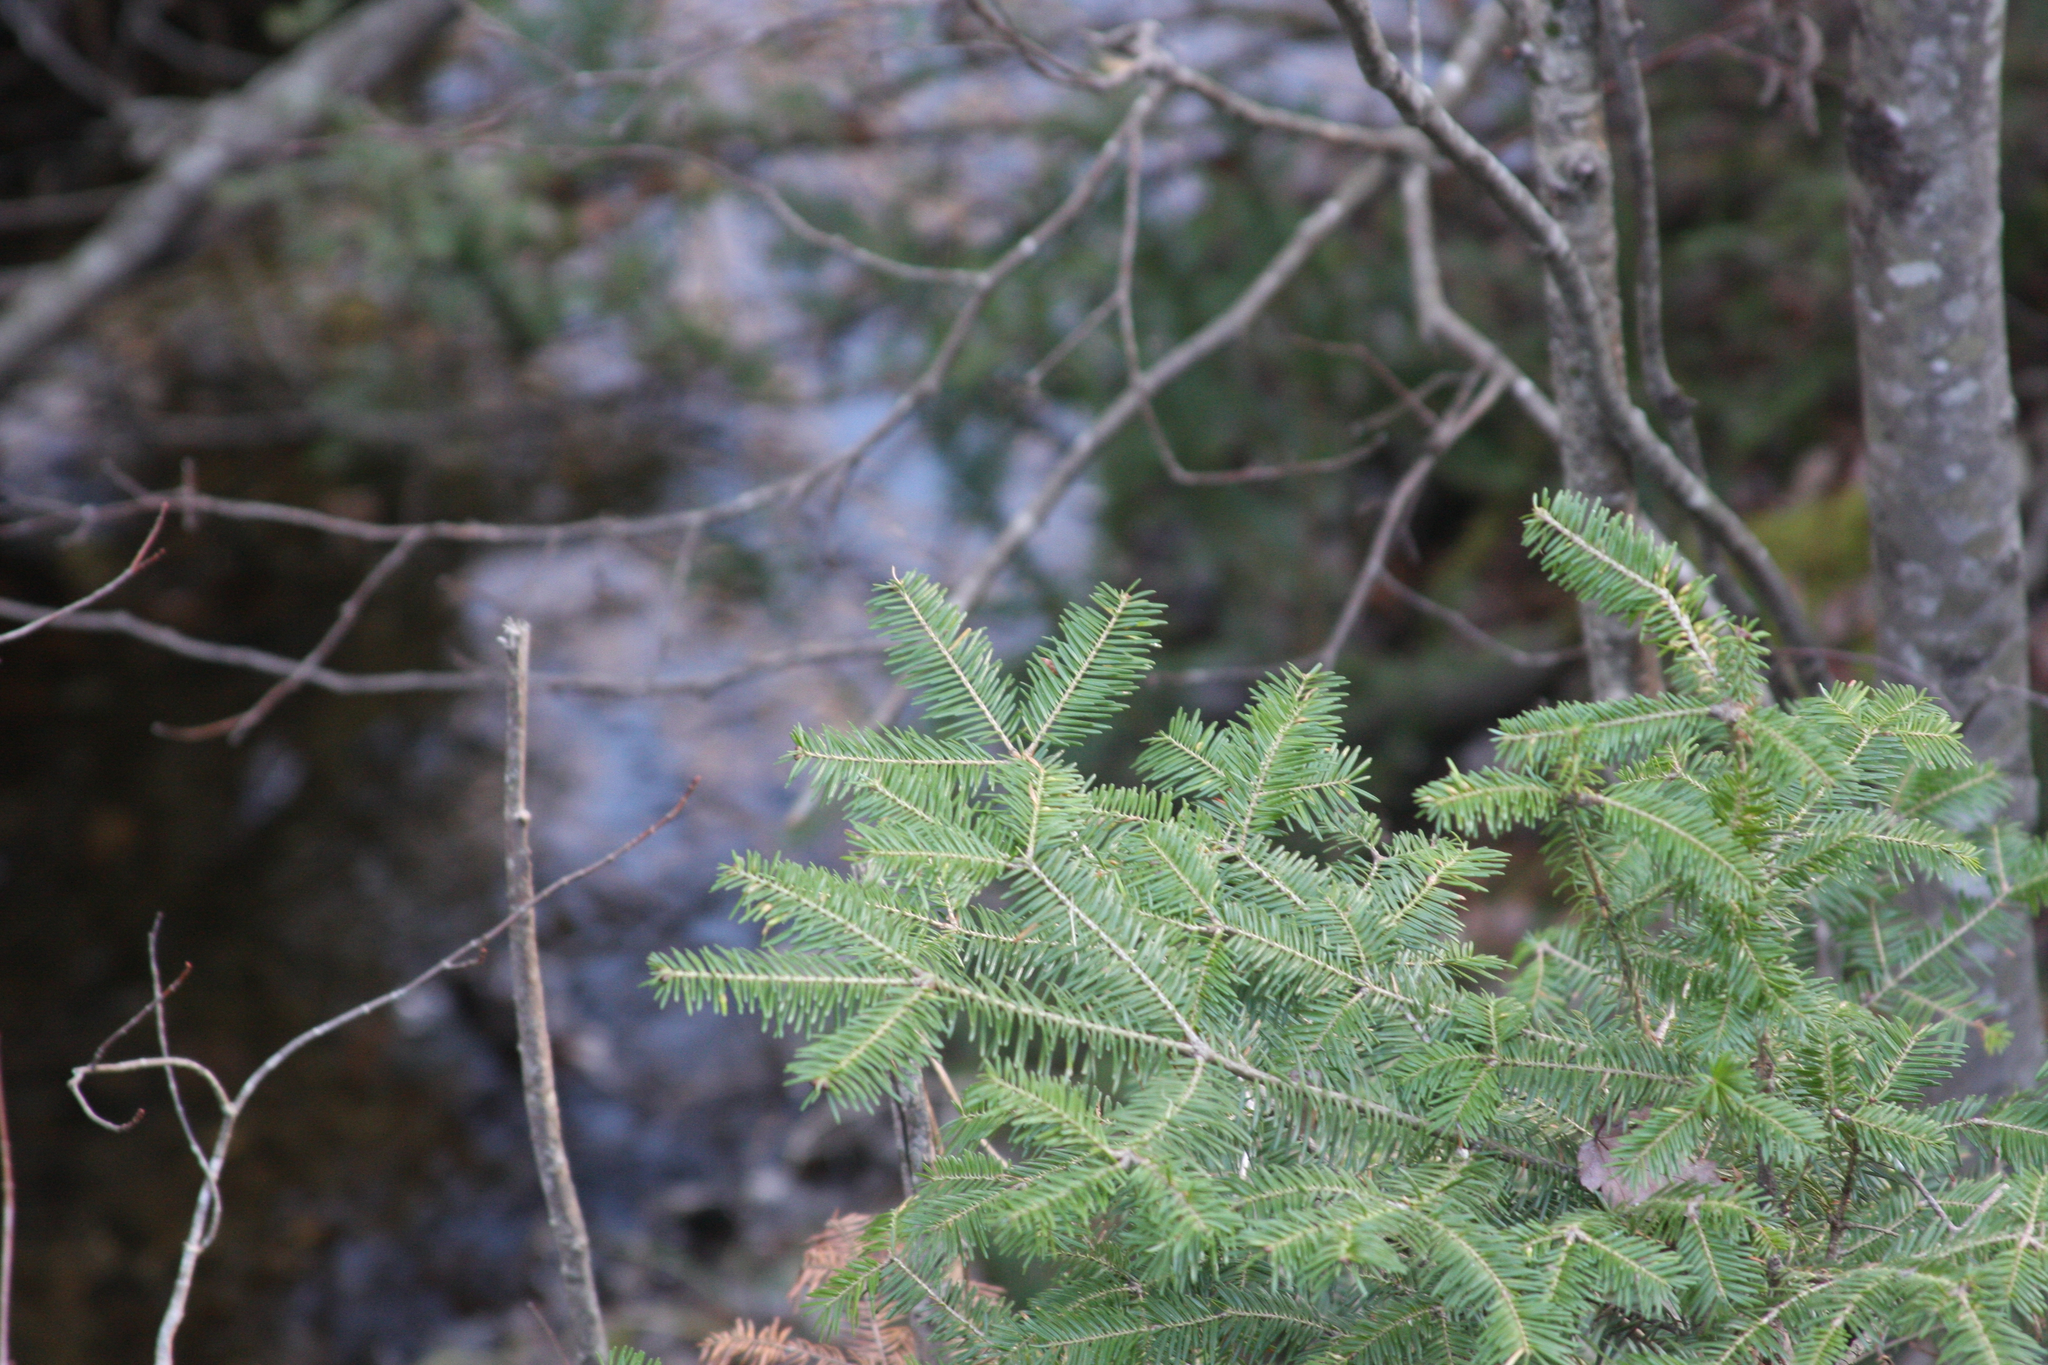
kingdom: Plantae
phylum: Tracheophyta
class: Pinopsida
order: Pinales
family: Pinaceae
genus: Abies
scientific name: Abies balsamea
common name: Balsam fir
